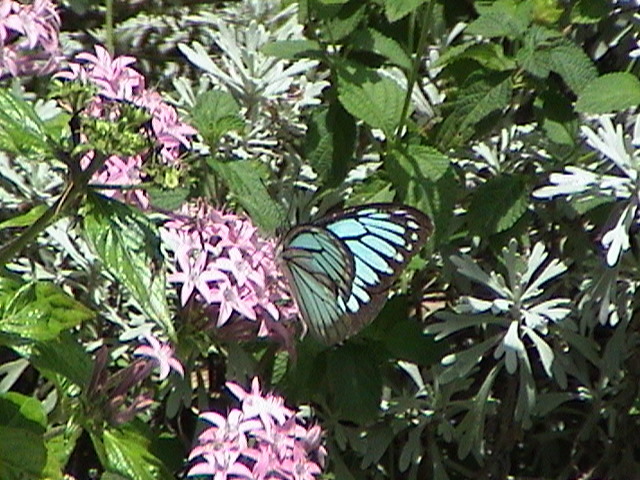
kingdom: Animalia
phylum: Arthropoda
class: Insecta
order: Lepidoptera
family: Pieridae
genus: Pareronia
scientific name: Pareronia hippia
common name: Indian wanderer
